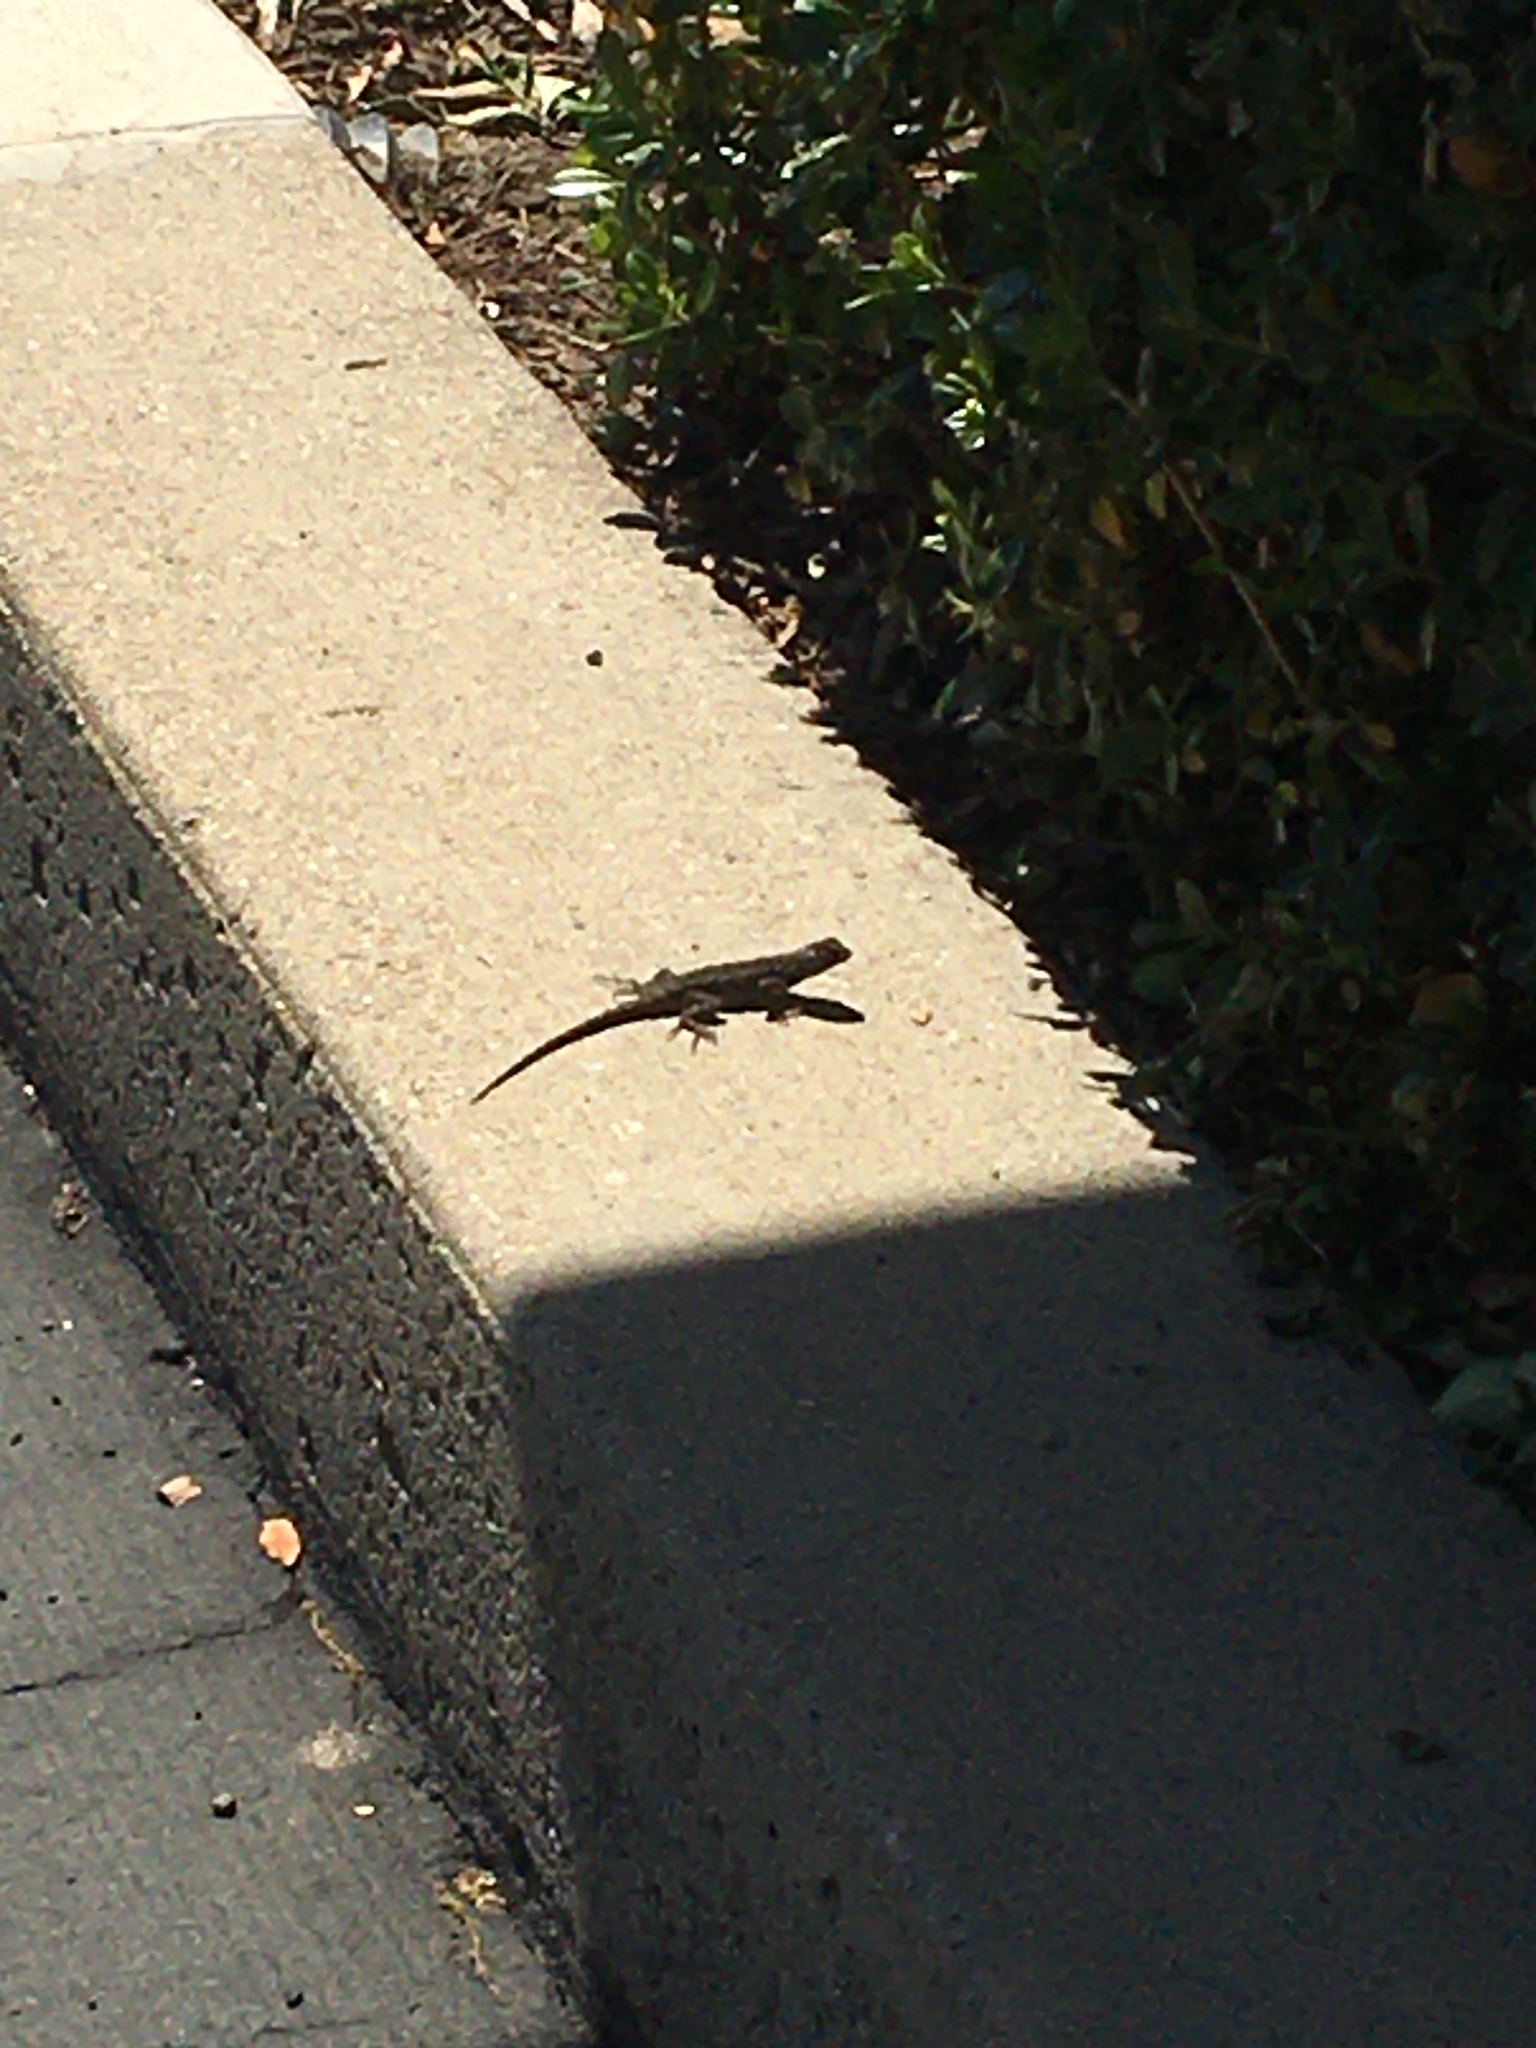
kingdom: Animalia
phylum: Chordata
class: Squamata
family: Phrynosomatidae
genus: Sceloporus
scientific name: Sceloporus occidentalis
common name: Western fence lizard
